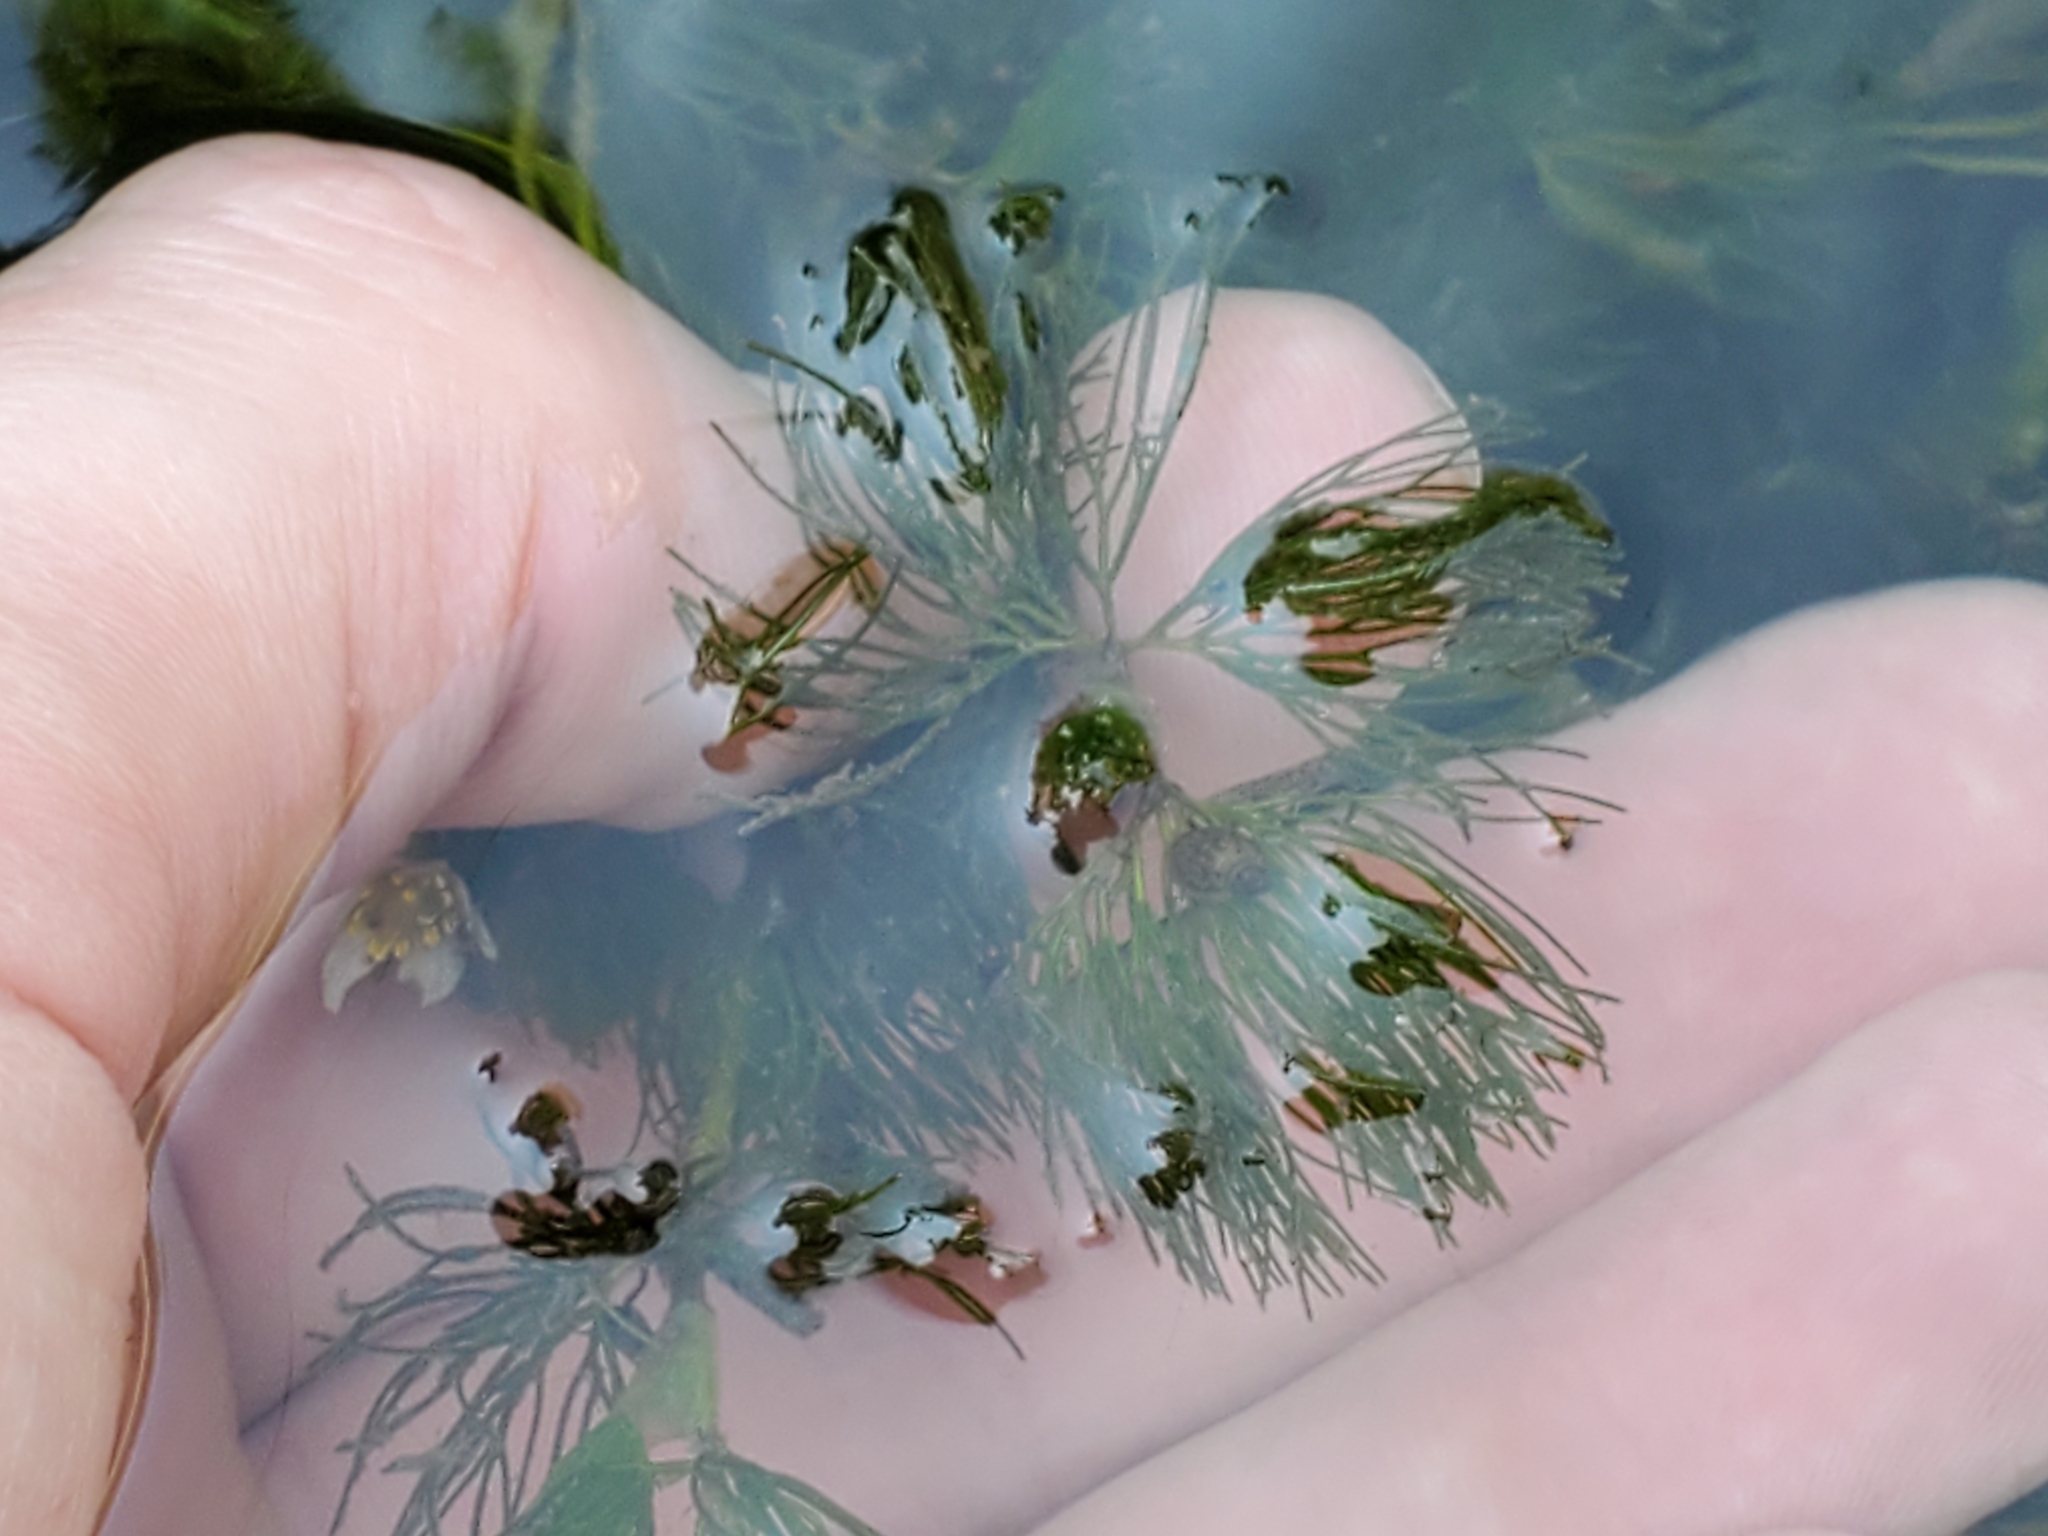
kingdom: Plantae
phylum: Tracheophyta
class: Magnoliopsida
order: Ranunculales
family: Ranunculaceae
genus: Ranunculus
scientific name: Ranunculus aquatilis
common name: Common water-crowfoot
